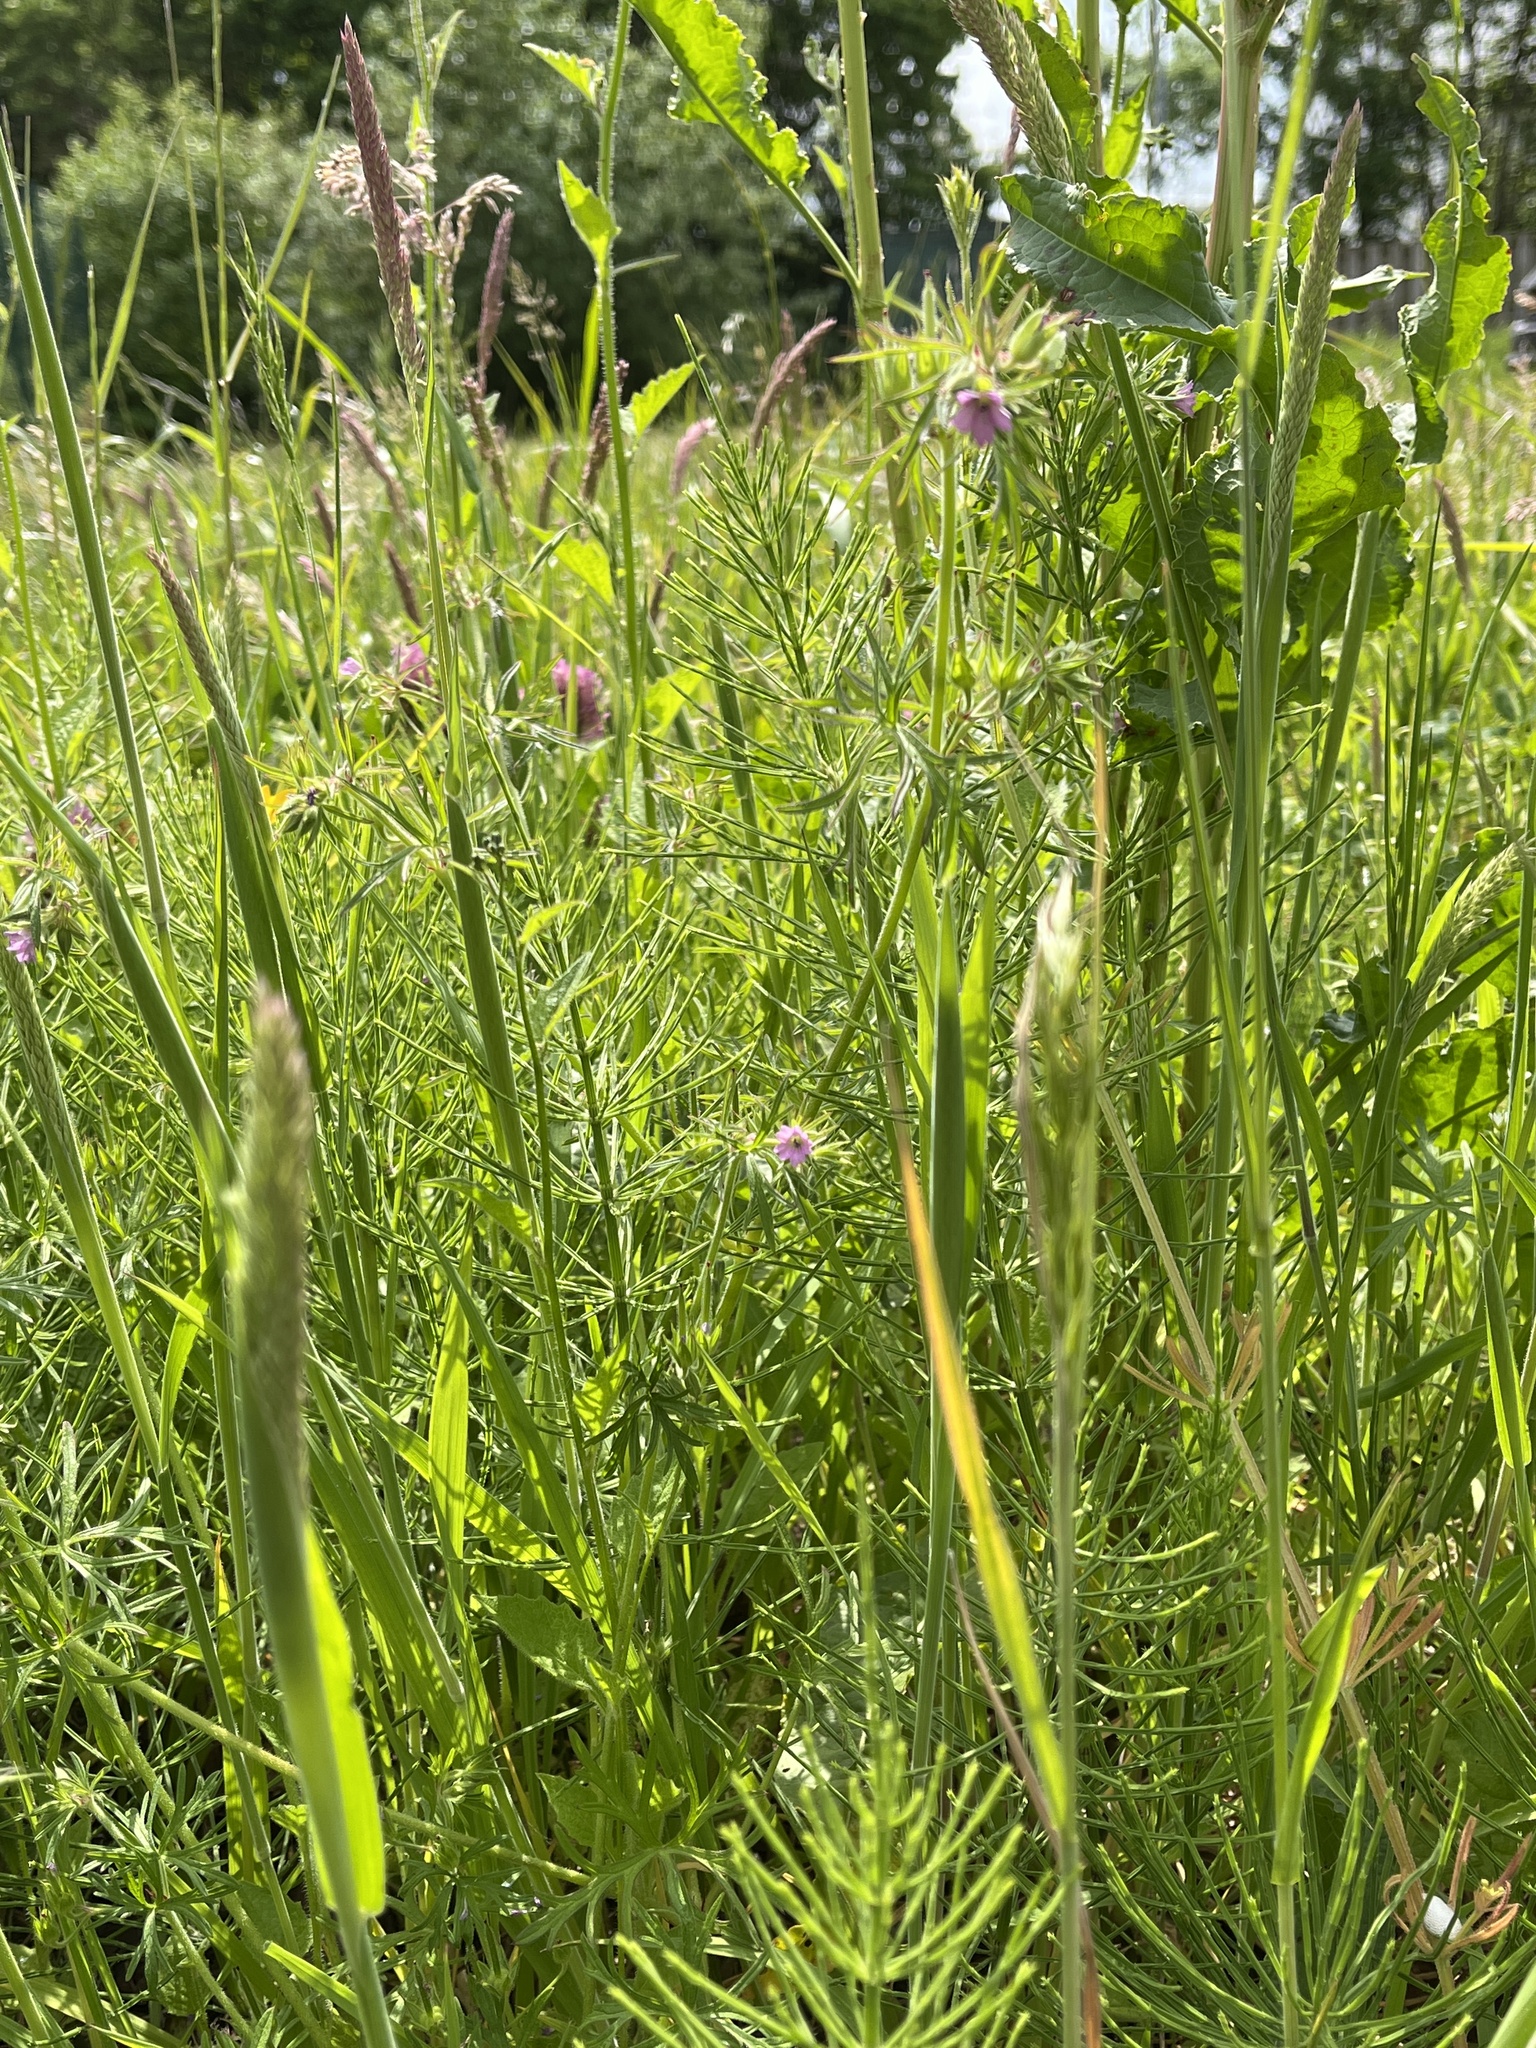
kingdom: Plantae
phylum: Tracheophyta
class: Magnoliopsida
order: Geraniales
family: Geraniaceae
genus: Geranium
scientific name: Geranium dissectum
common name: Cut-leaved crane's-bill
